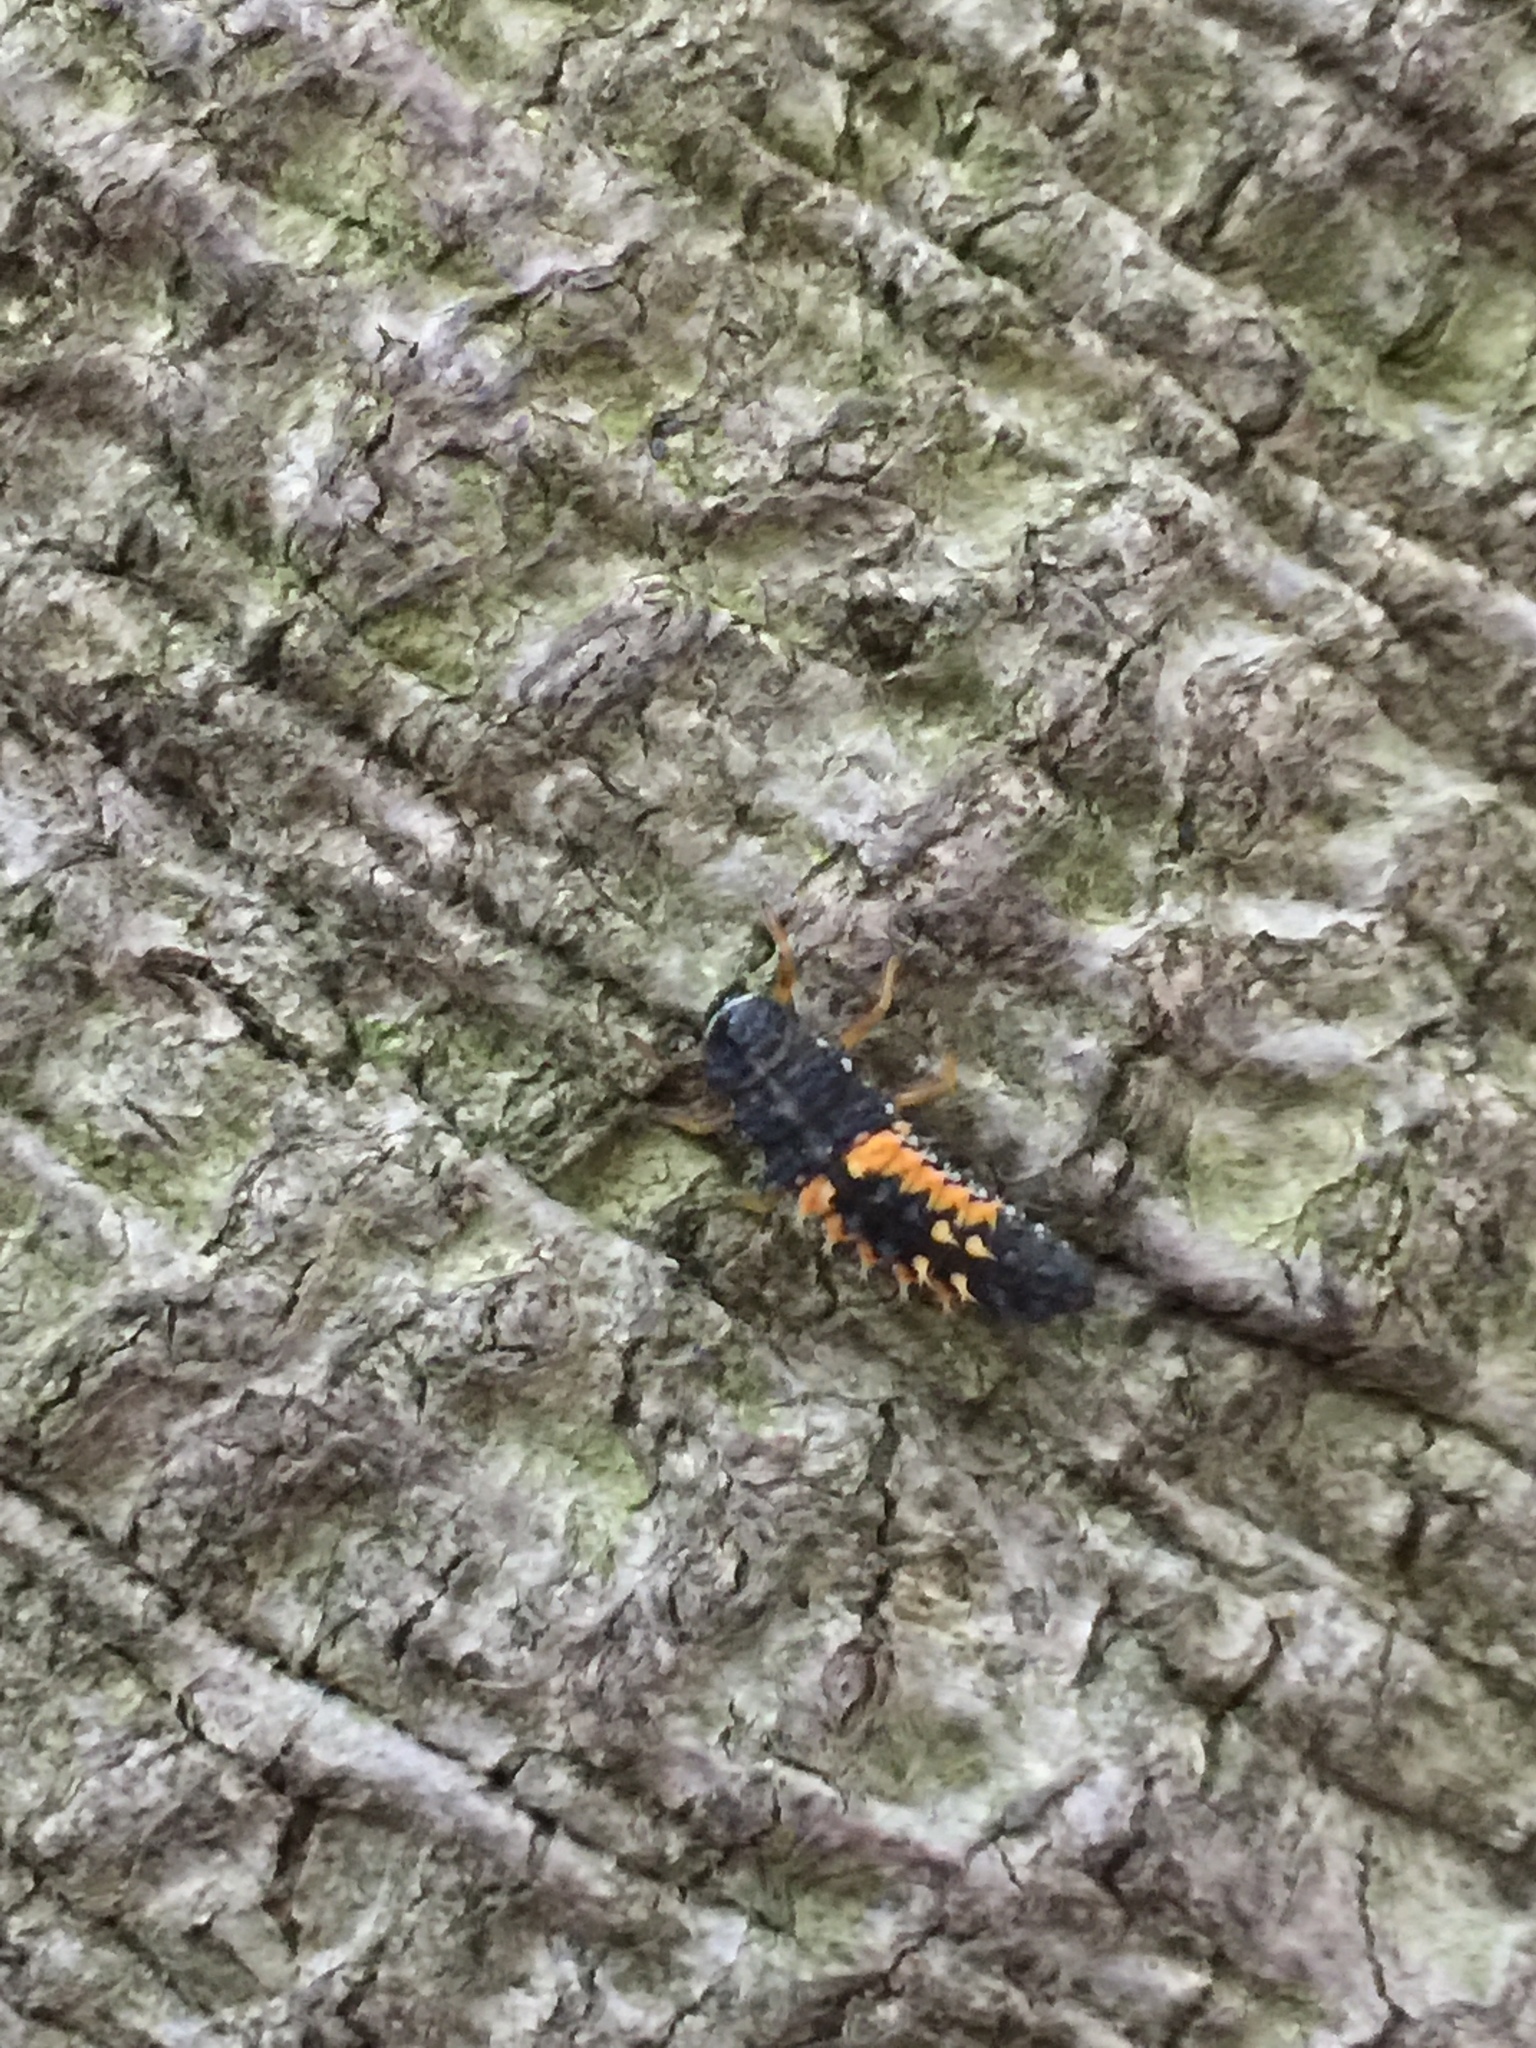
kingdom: Animalia
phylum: Arthropoda
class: Insecta
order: Coleoptera
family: Coccinellidae
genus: Harmonia
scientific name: Harmonia axyridis
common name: Harlequin ladybird
